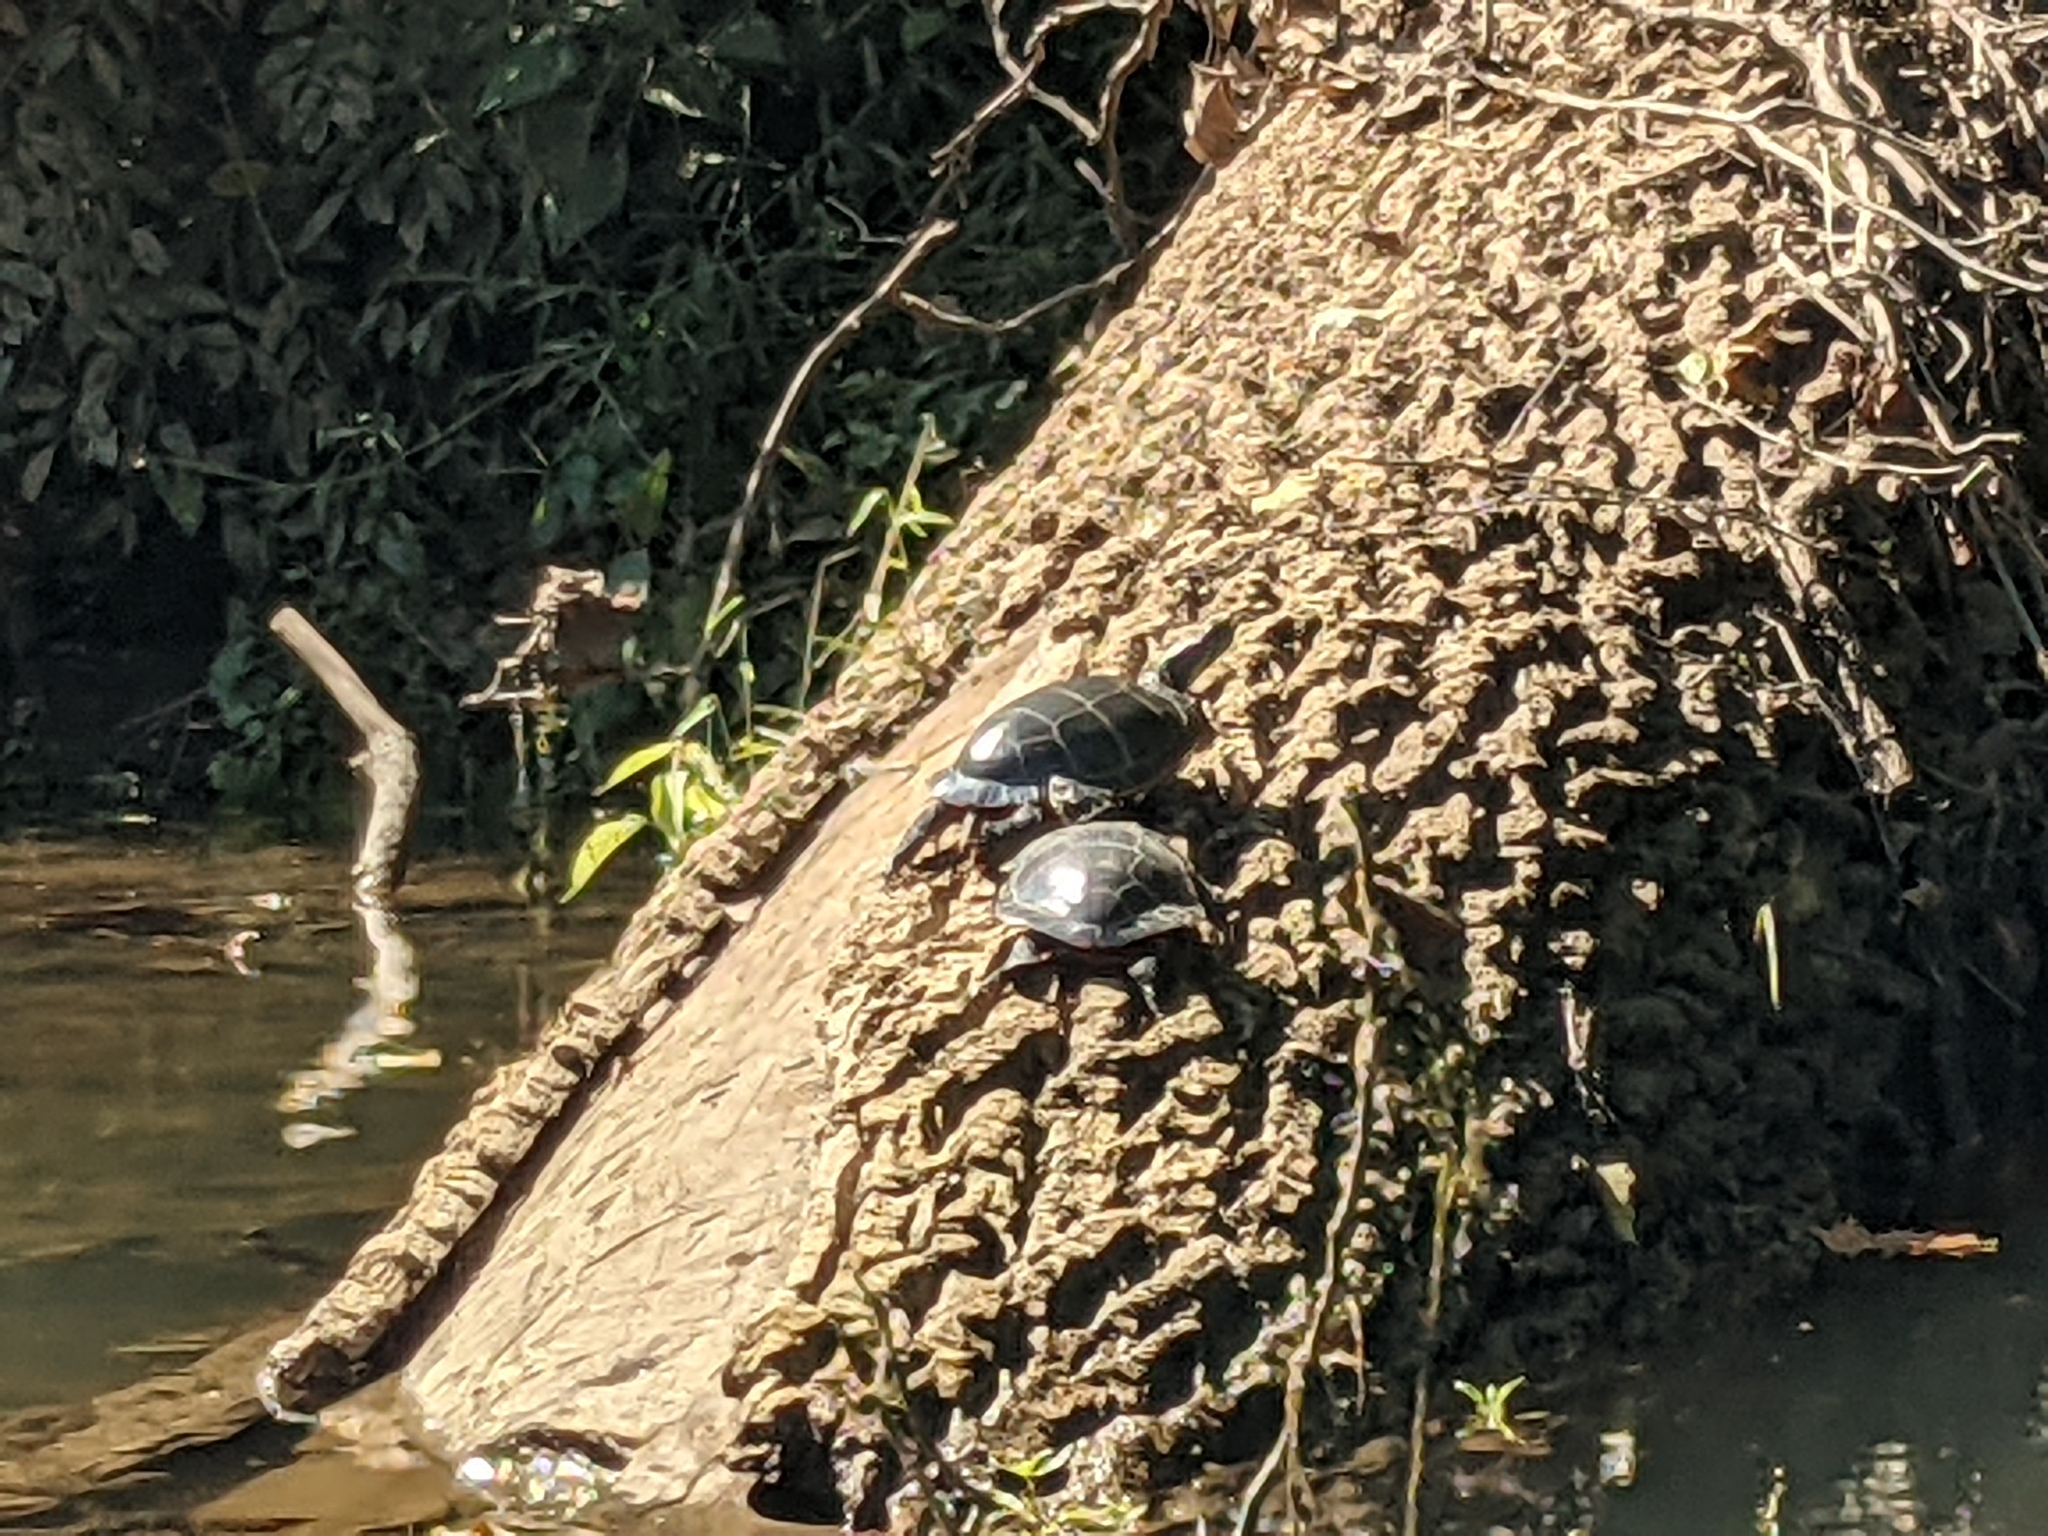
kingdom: Animalia
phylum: Chordata
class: Testudines
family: Emydidae
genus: Chrysemys
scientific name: Chrysemys picta
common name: Painted turtle
